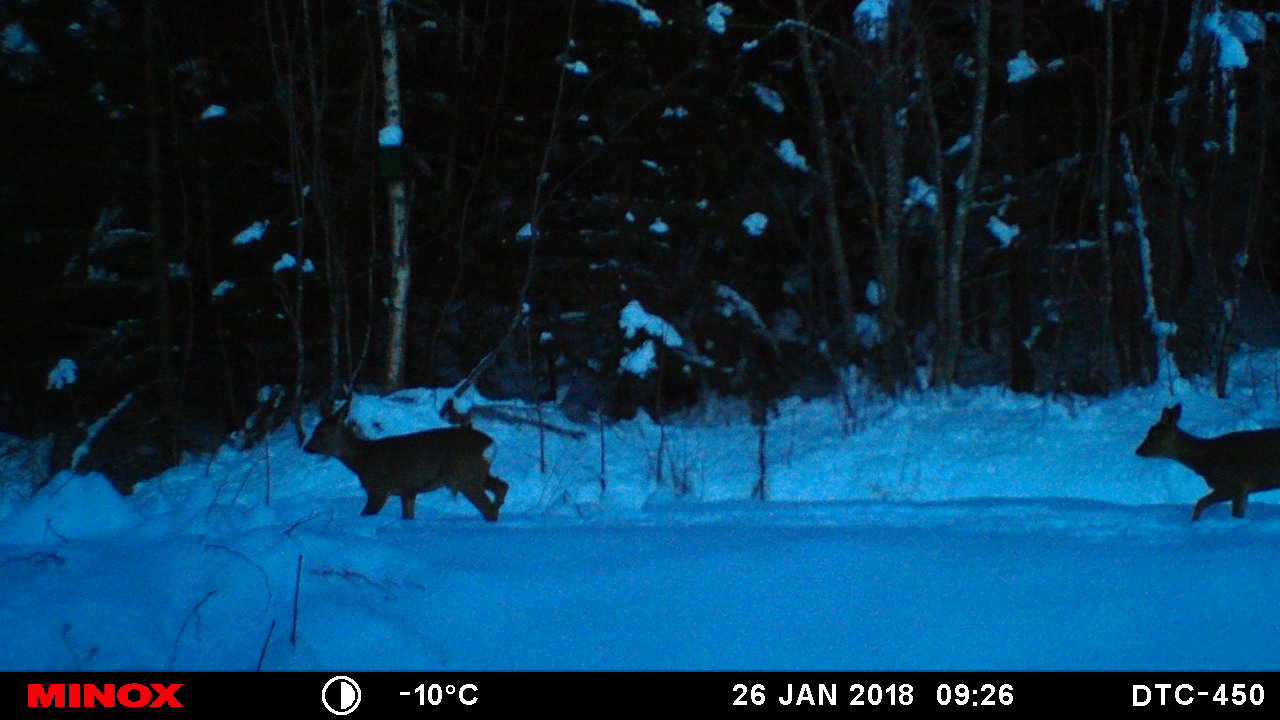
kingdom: Animalia
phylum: Chordata
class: Mammalia
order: Artiodactyla
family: Cervidae
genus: Capreolus
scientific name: Capreolus capreolus
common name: Western roe deer
